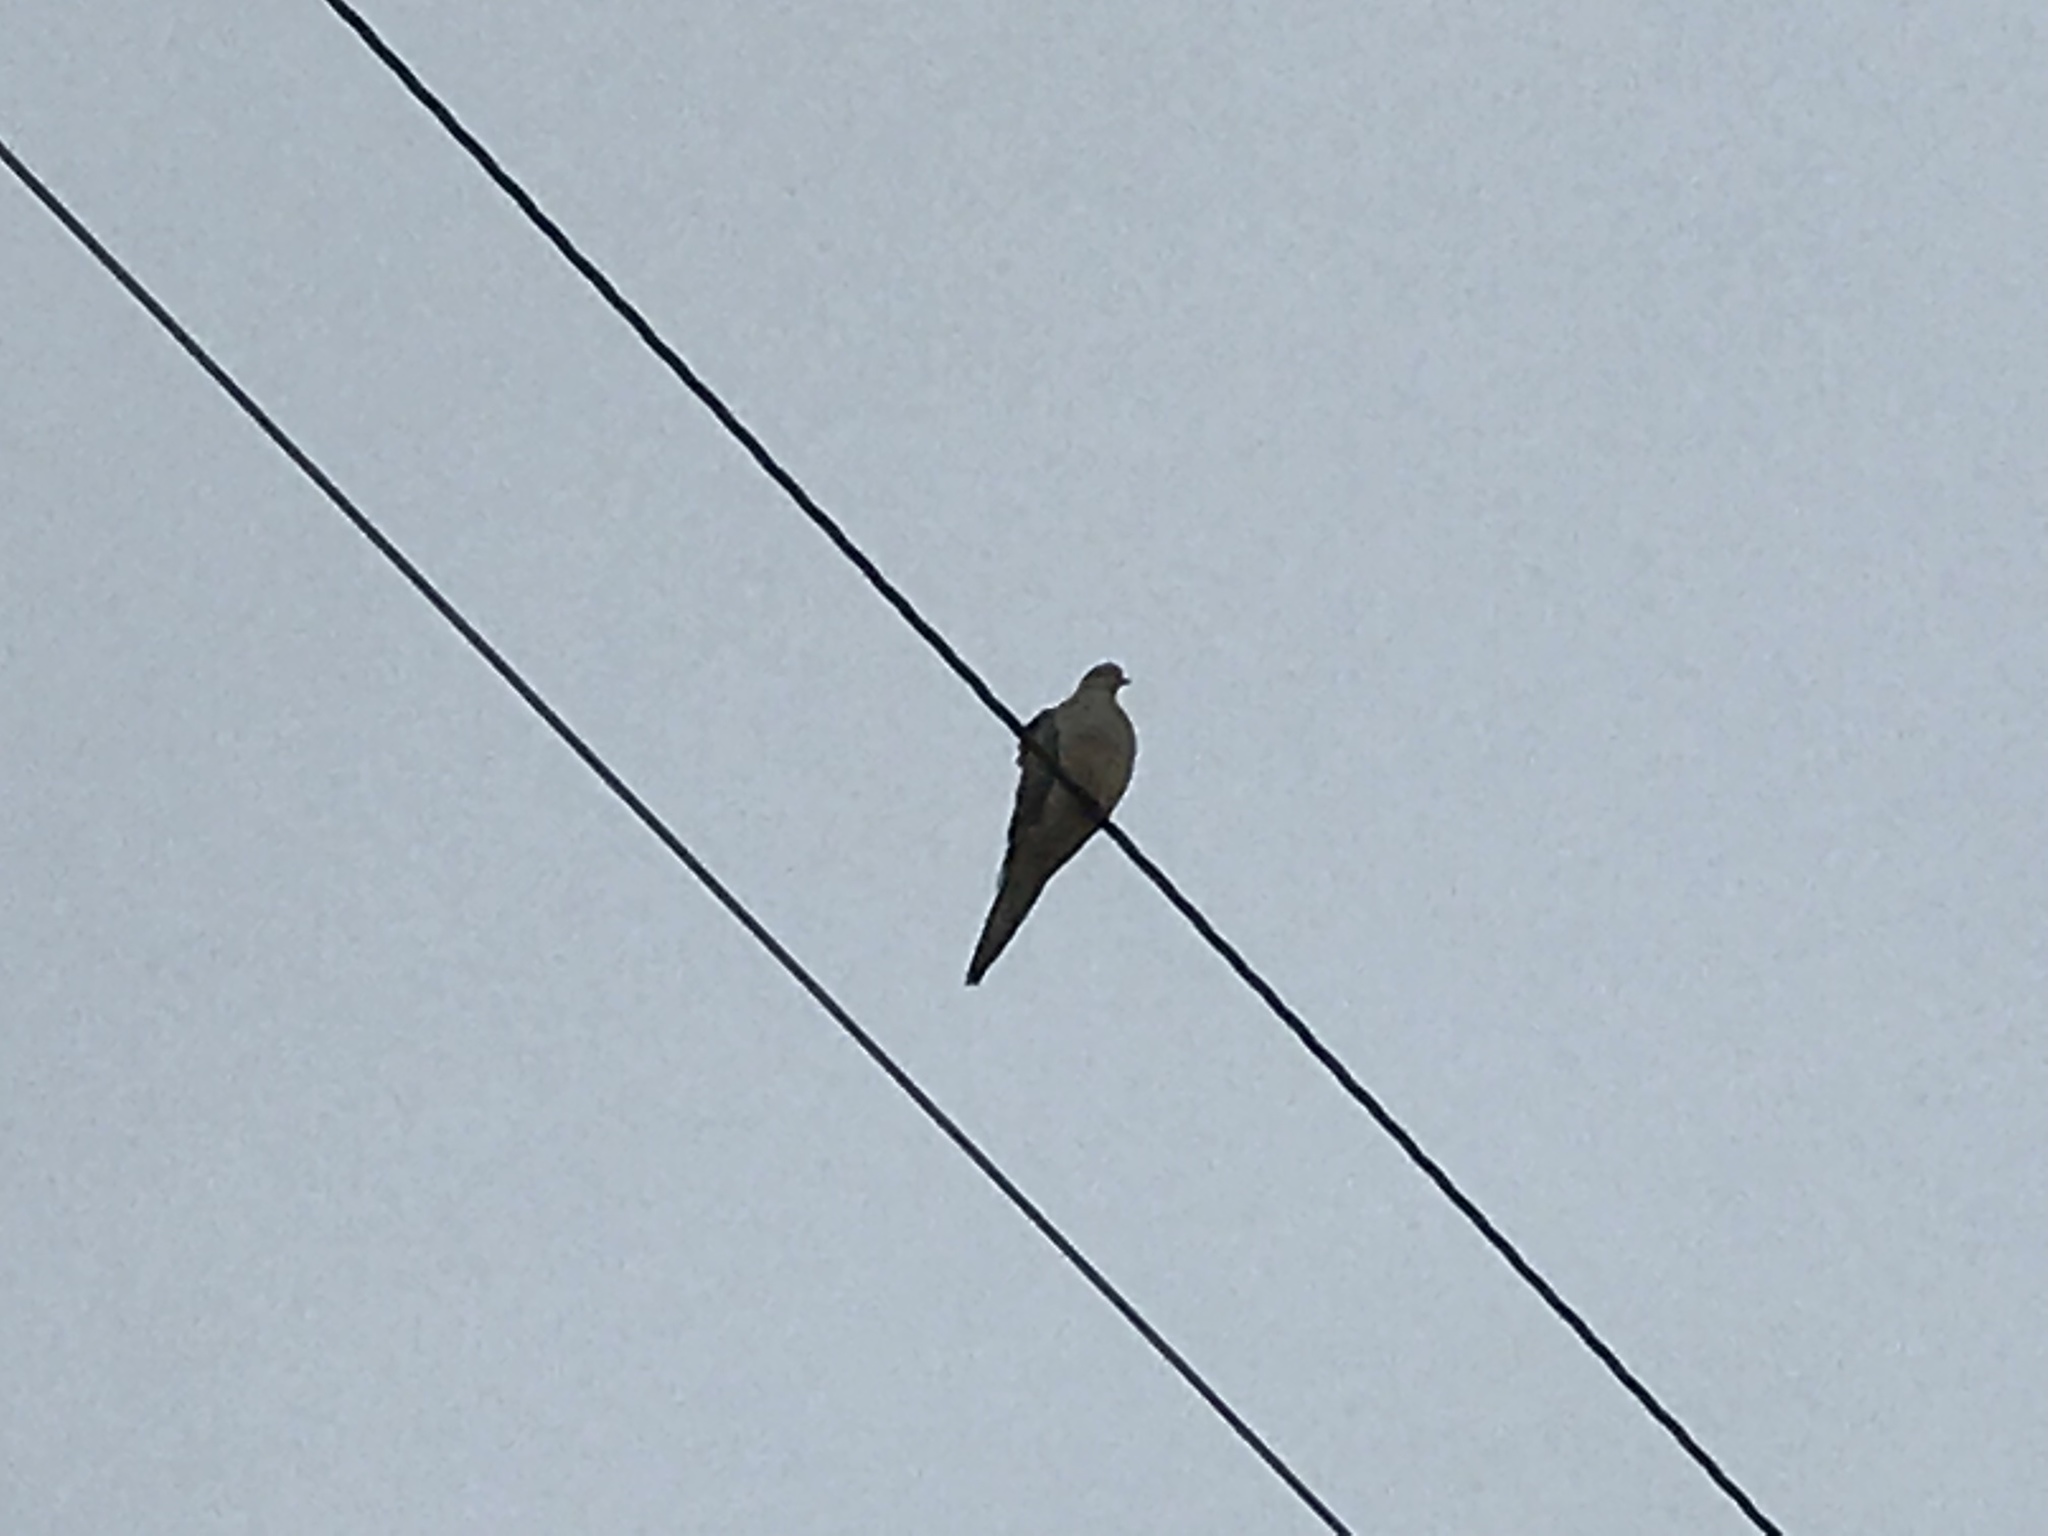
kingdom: Animalia
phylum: Chordata
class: Aves
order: Columbiformes
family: Columbidae
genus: Zenaida
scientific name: Zenaida macroura
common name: Mourning dove
